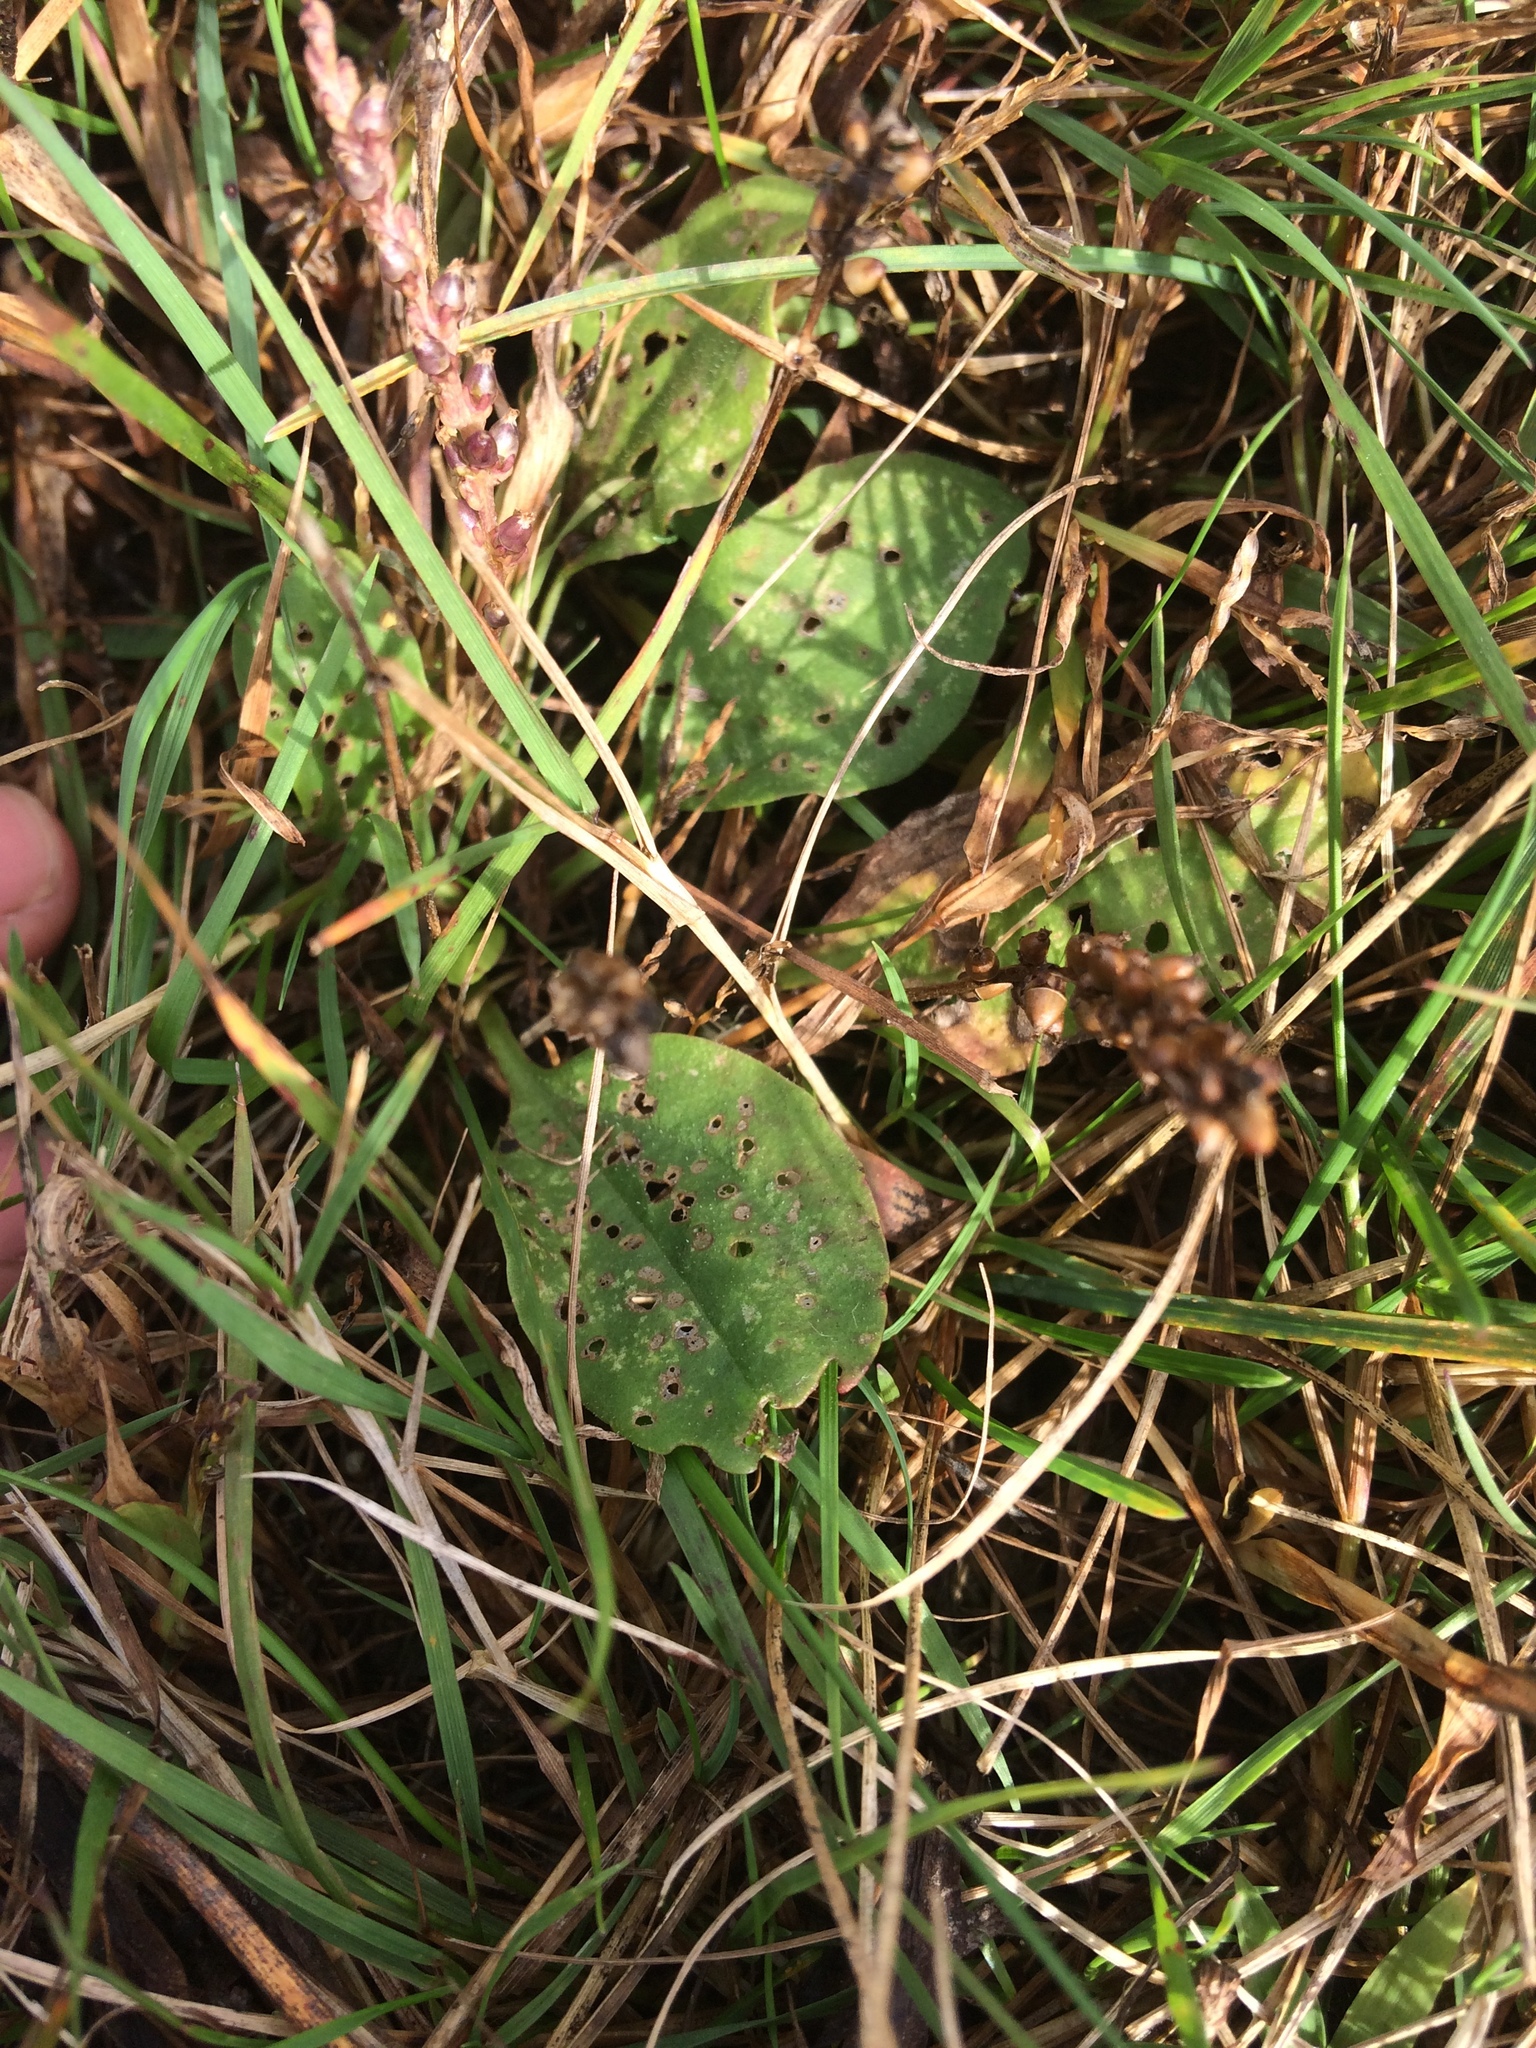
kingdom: Plantae
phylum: Tracheophyta
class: Magnoliopsida
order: Lamiales
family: Plantaginaceae
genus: Plantago
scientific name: Plantago major
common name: Common plantain
